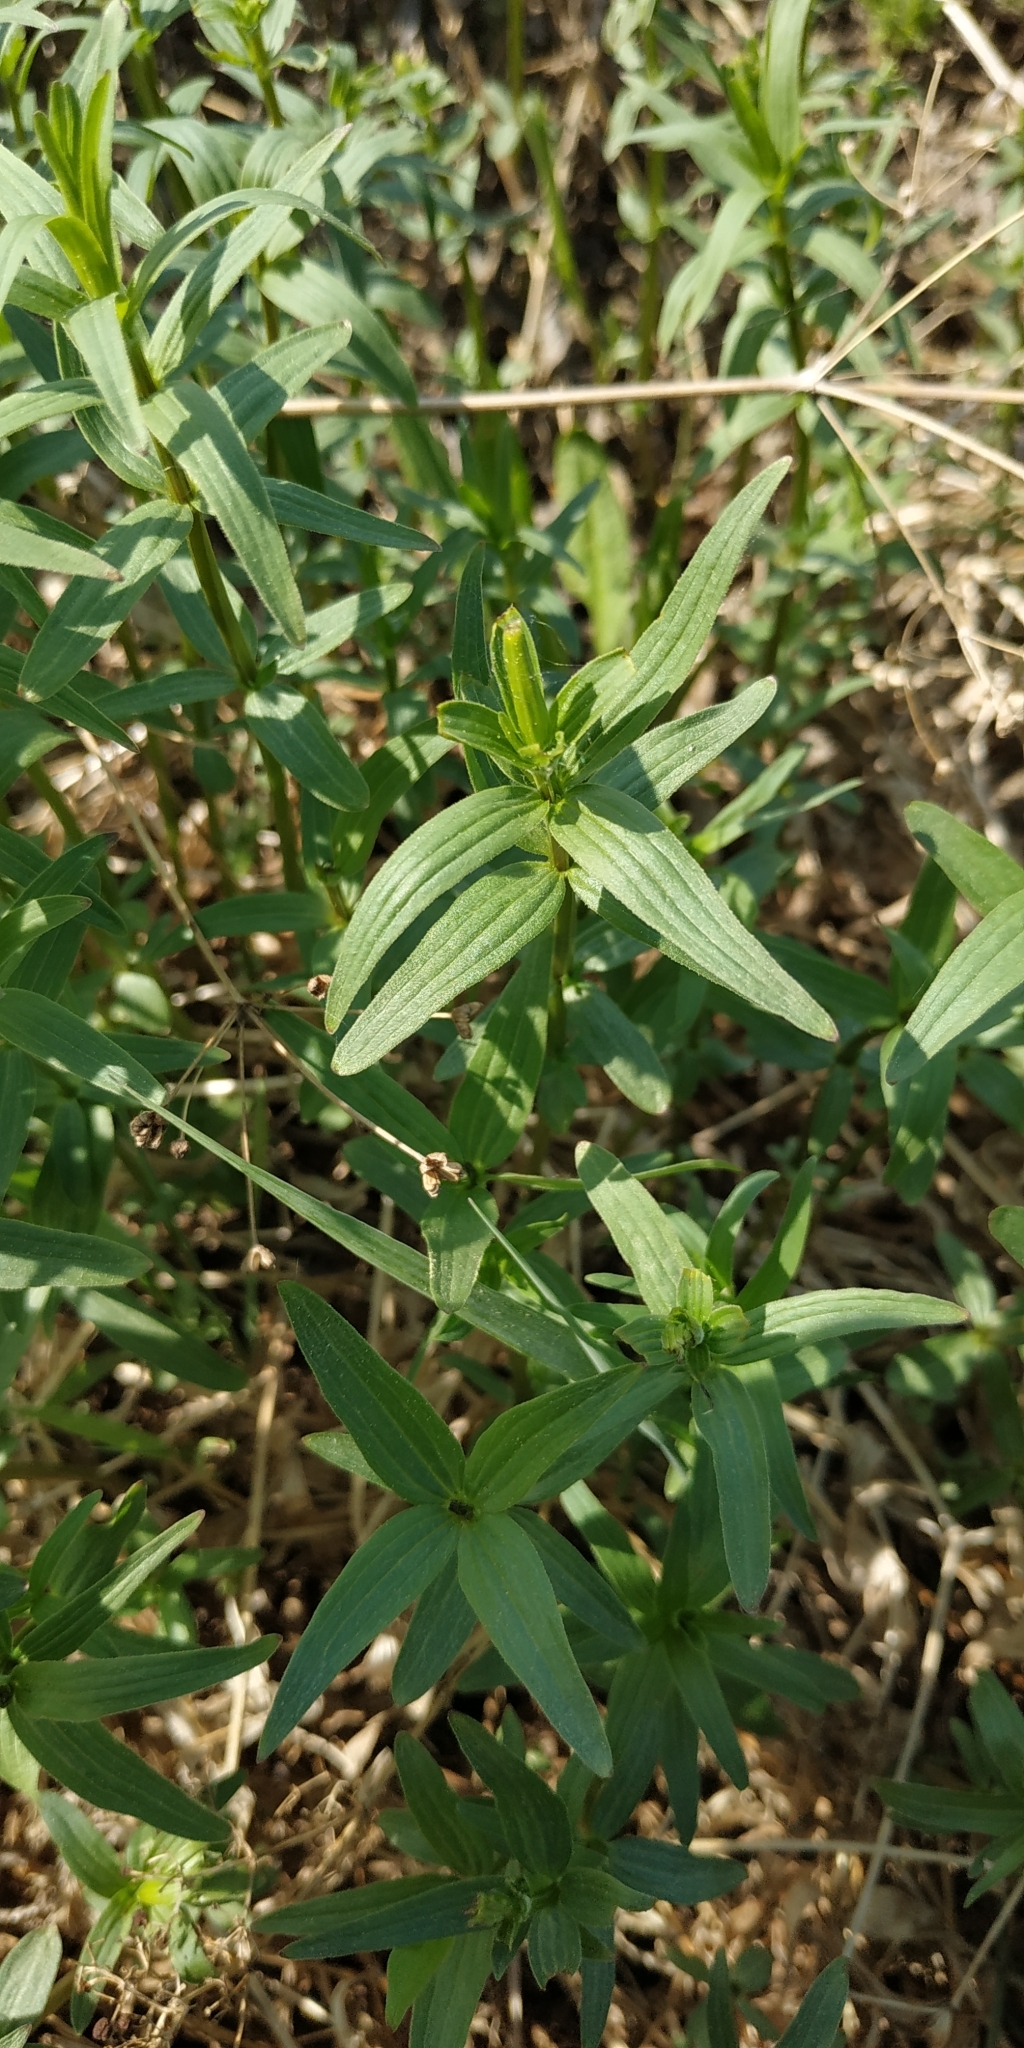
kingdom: Plantae
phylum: Tracheophyta
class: Magnoliopsida
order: Gentianales
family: Rubiaceae
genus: Galium
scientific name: Galium rubioides
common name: European bedstraw
